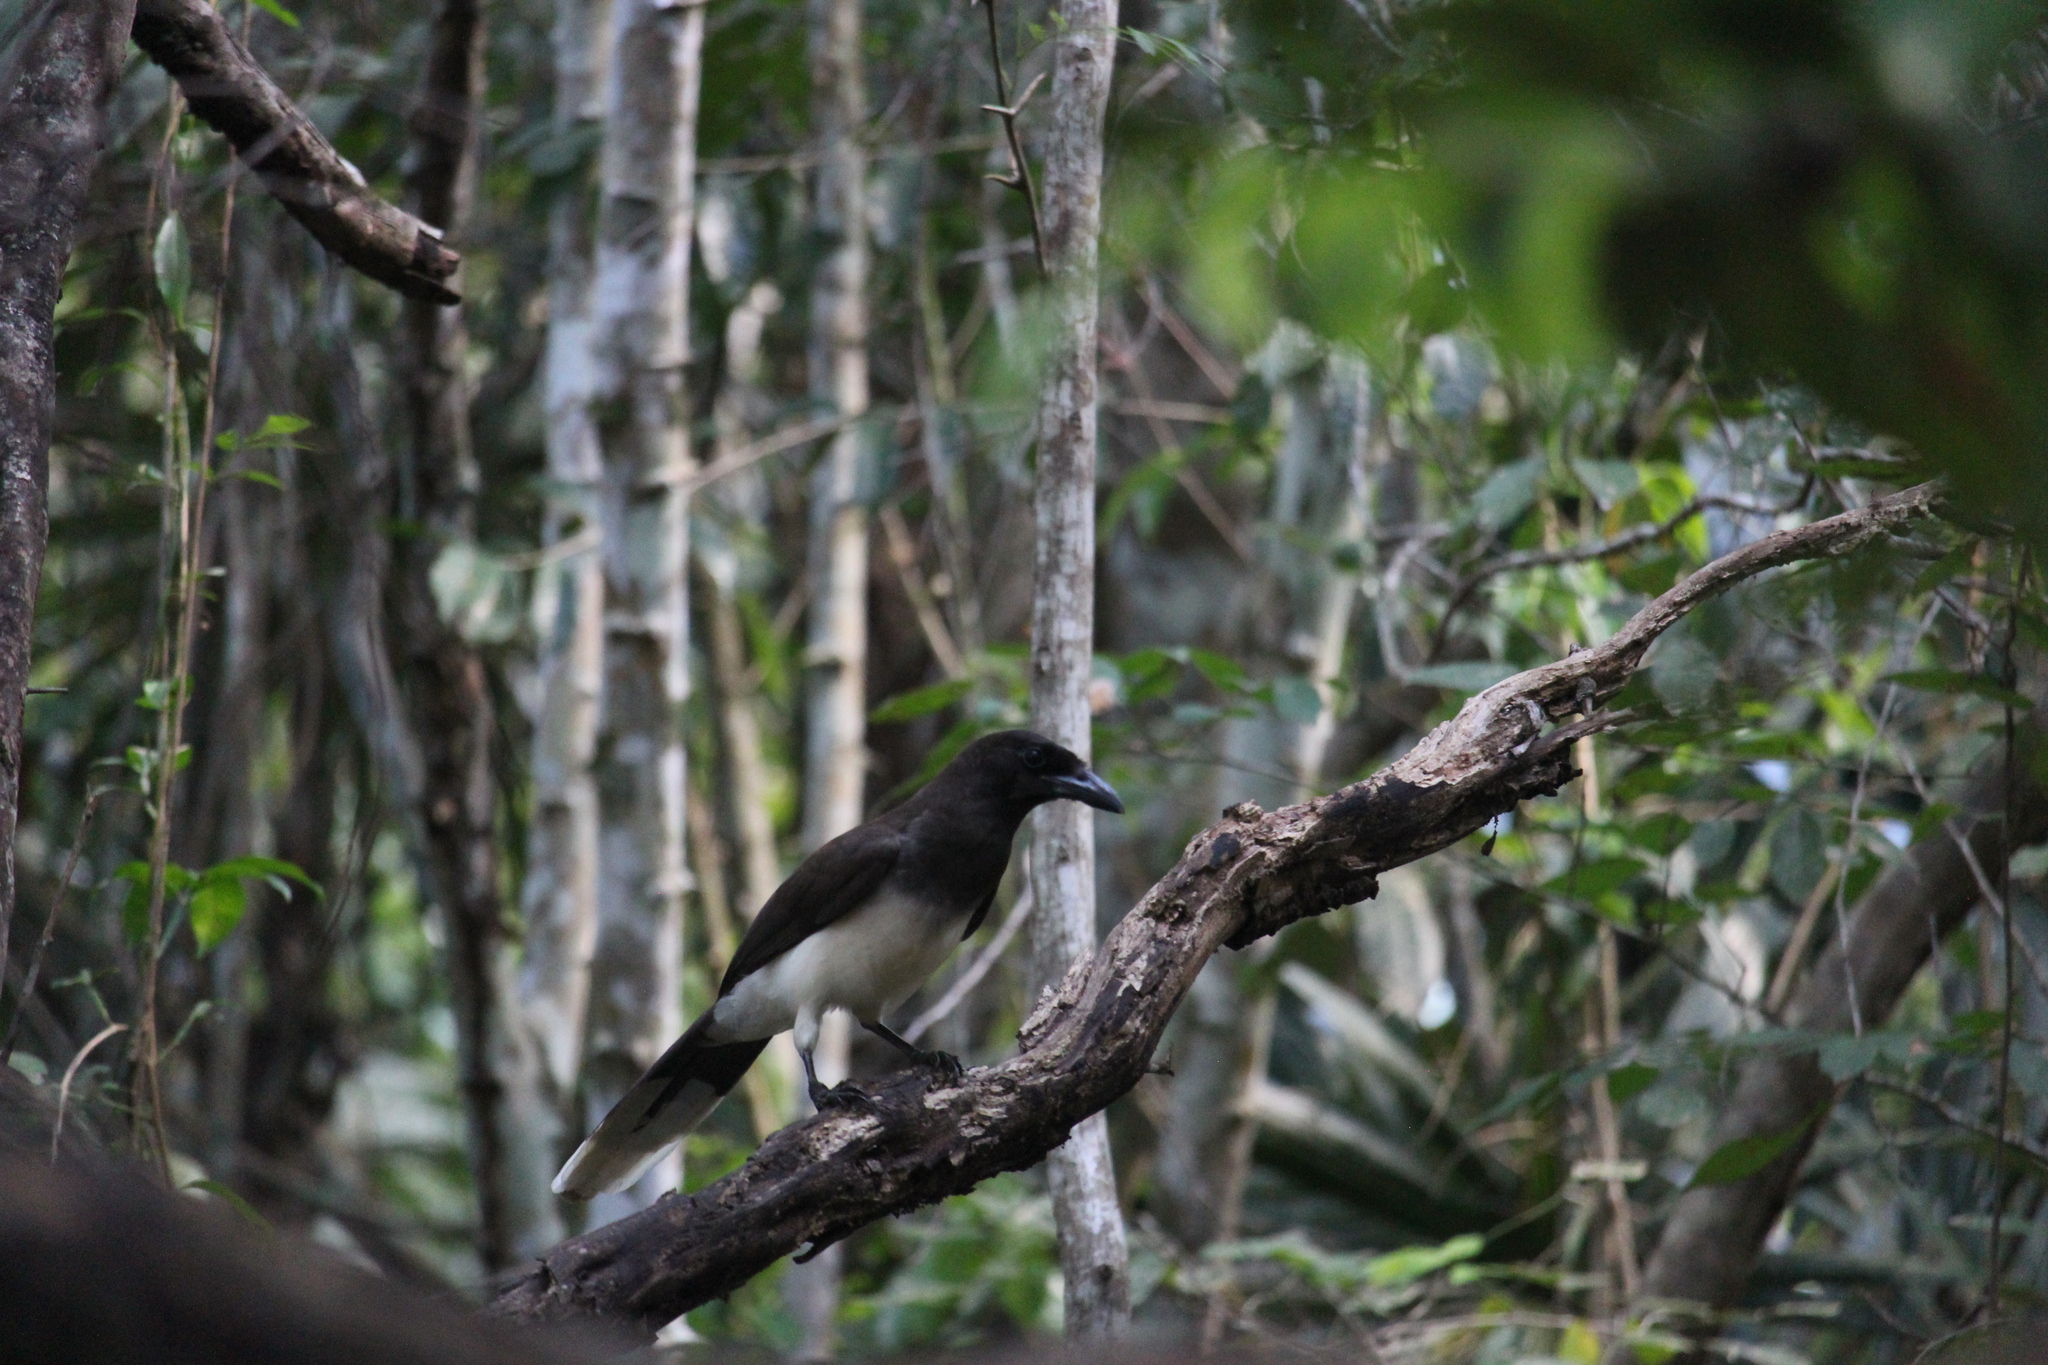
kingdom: Animalia
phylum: Chordata
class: Aves
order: Passeriformes
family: Corvidae
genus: Psilorhinus
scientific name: Psilorhinus morio
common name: Brown jay
